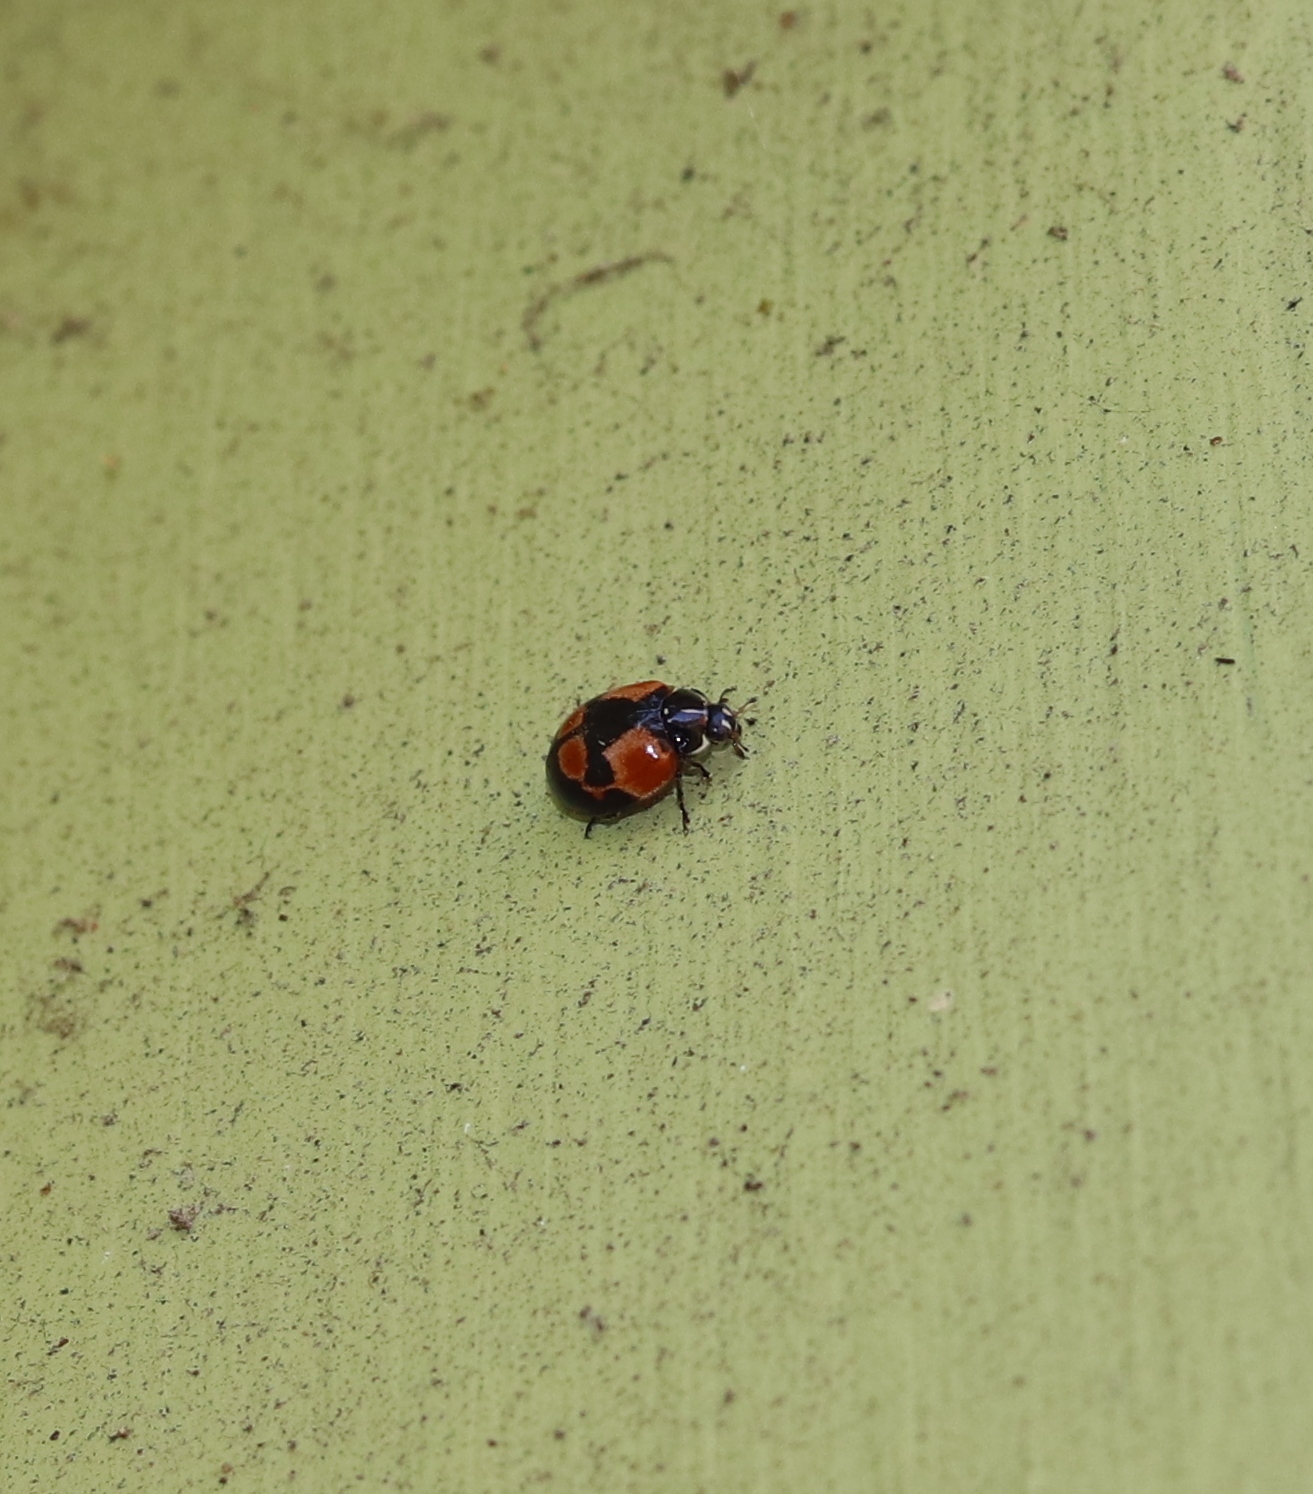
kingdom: Animalia
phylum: Arthropoda
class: Insecta
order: Coleoptera
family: Coccinellidae
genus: Adalia
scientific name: Adalia bipunctata
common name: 2-spot ladybird
